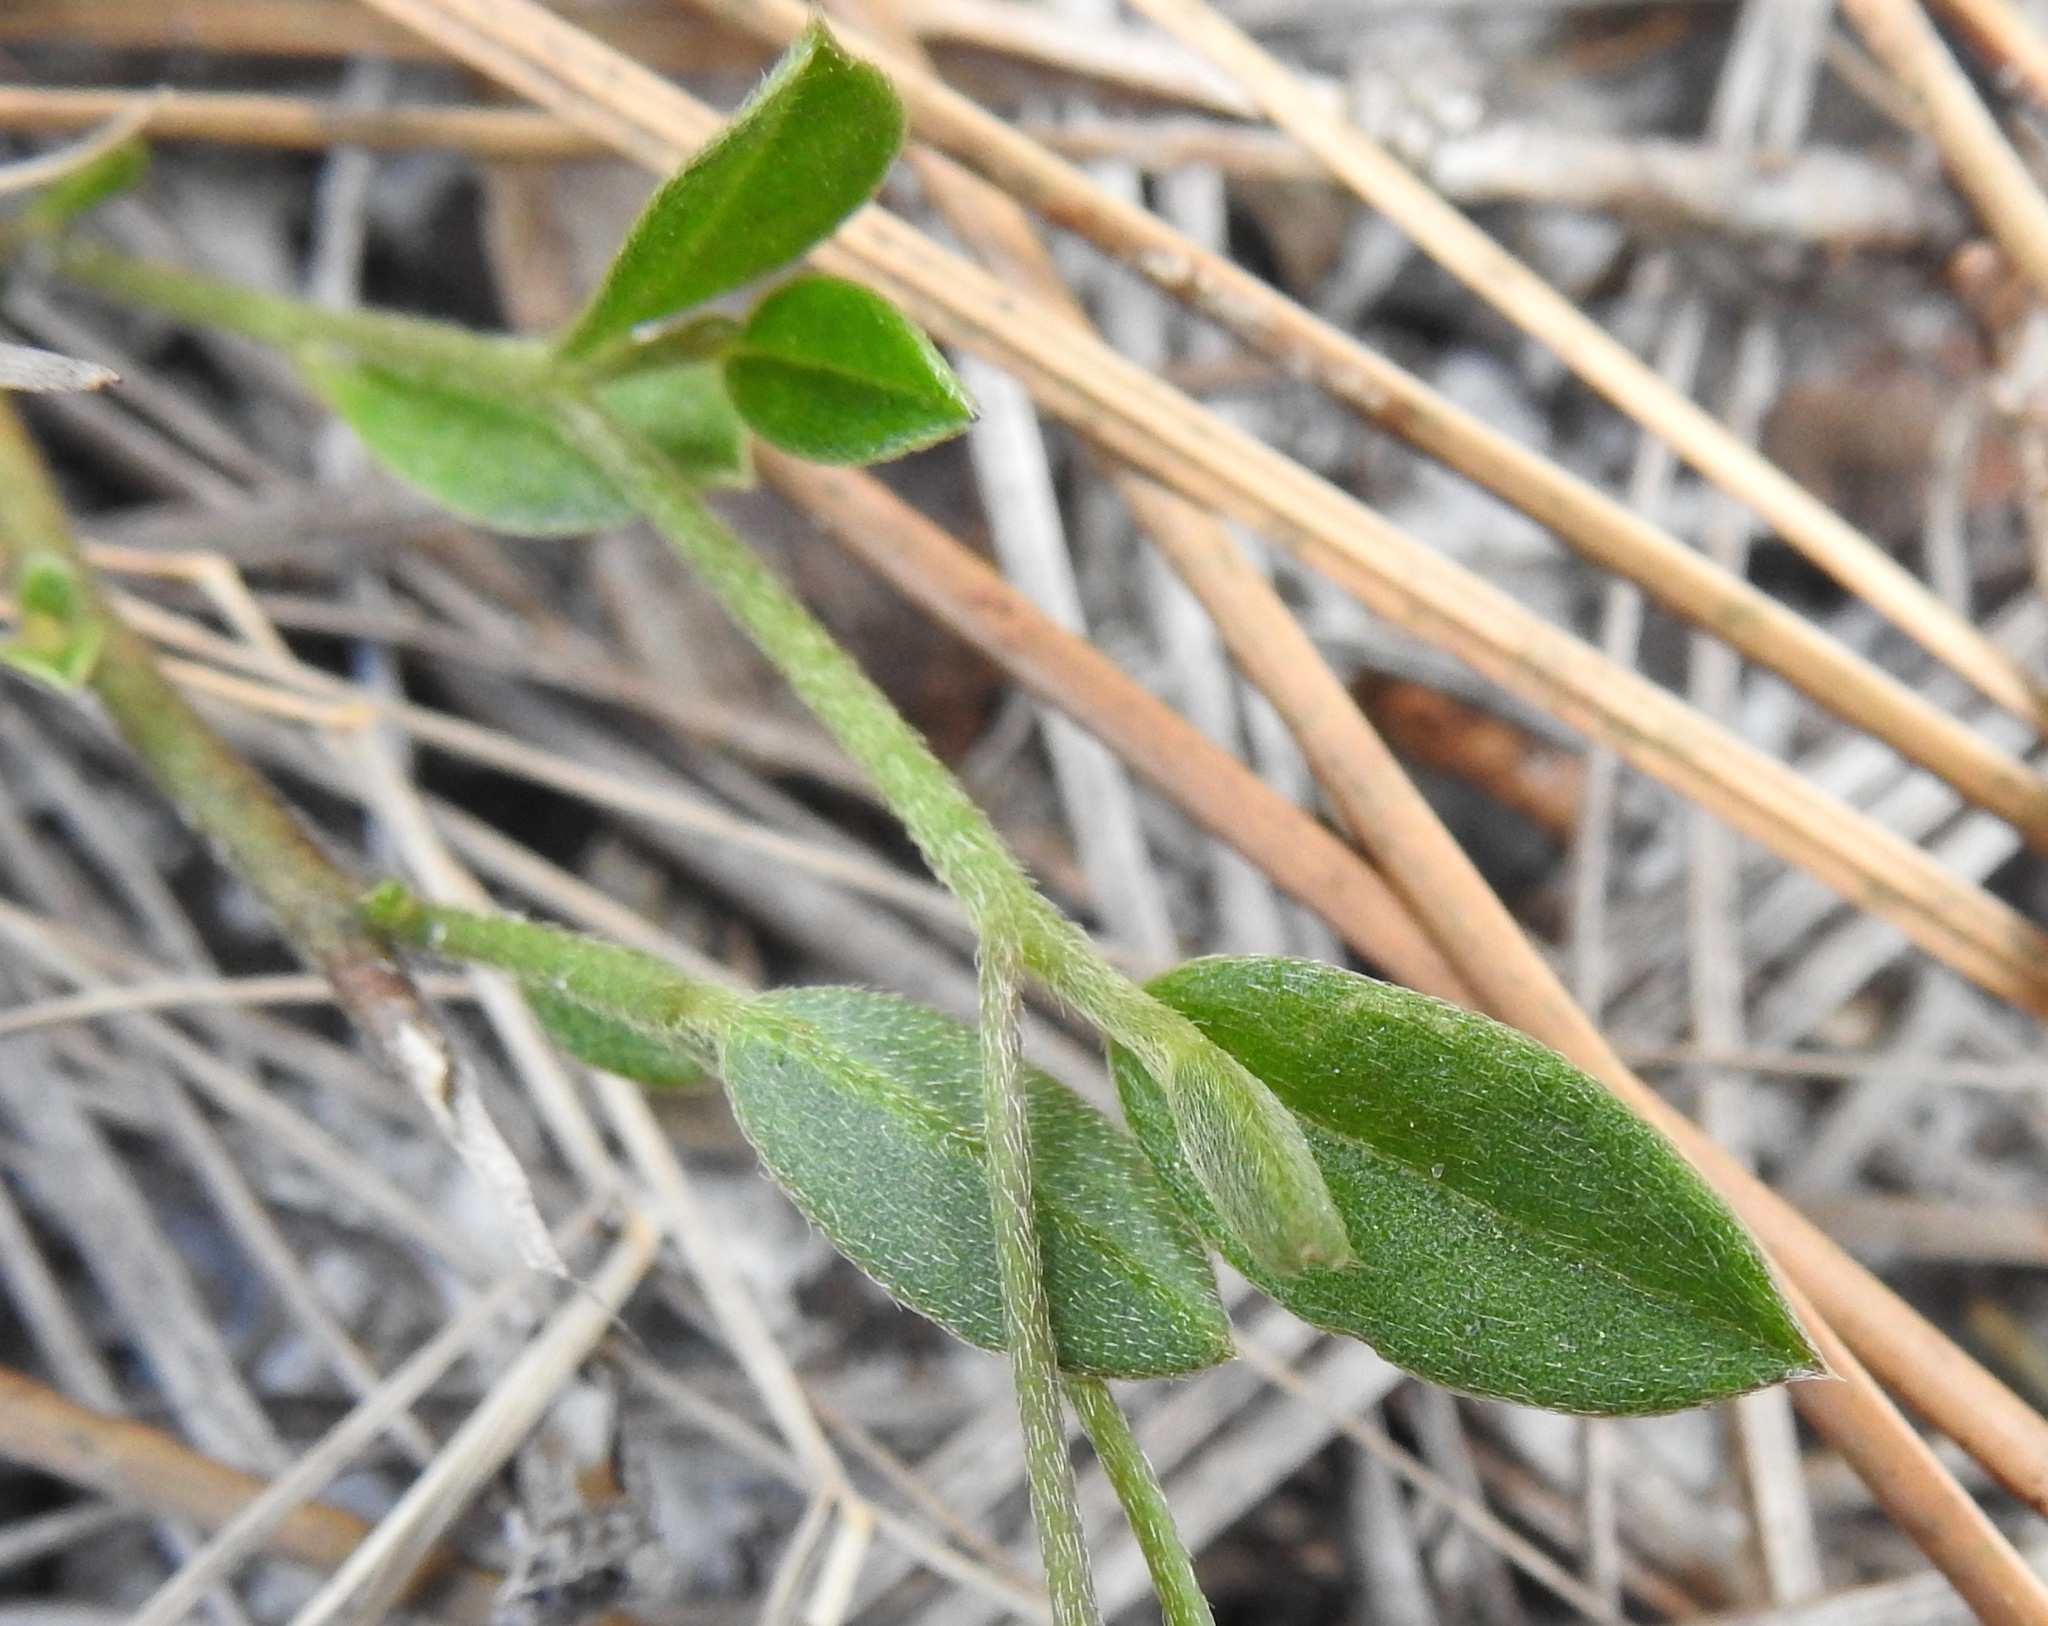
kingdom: Plantae
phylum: Tracheophyta
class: Magnoliopsida
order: Fabales
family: Fabaceae
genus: Crotalaria
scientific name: Crotalaria rotundifolia
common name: Prostrate rattlebox
